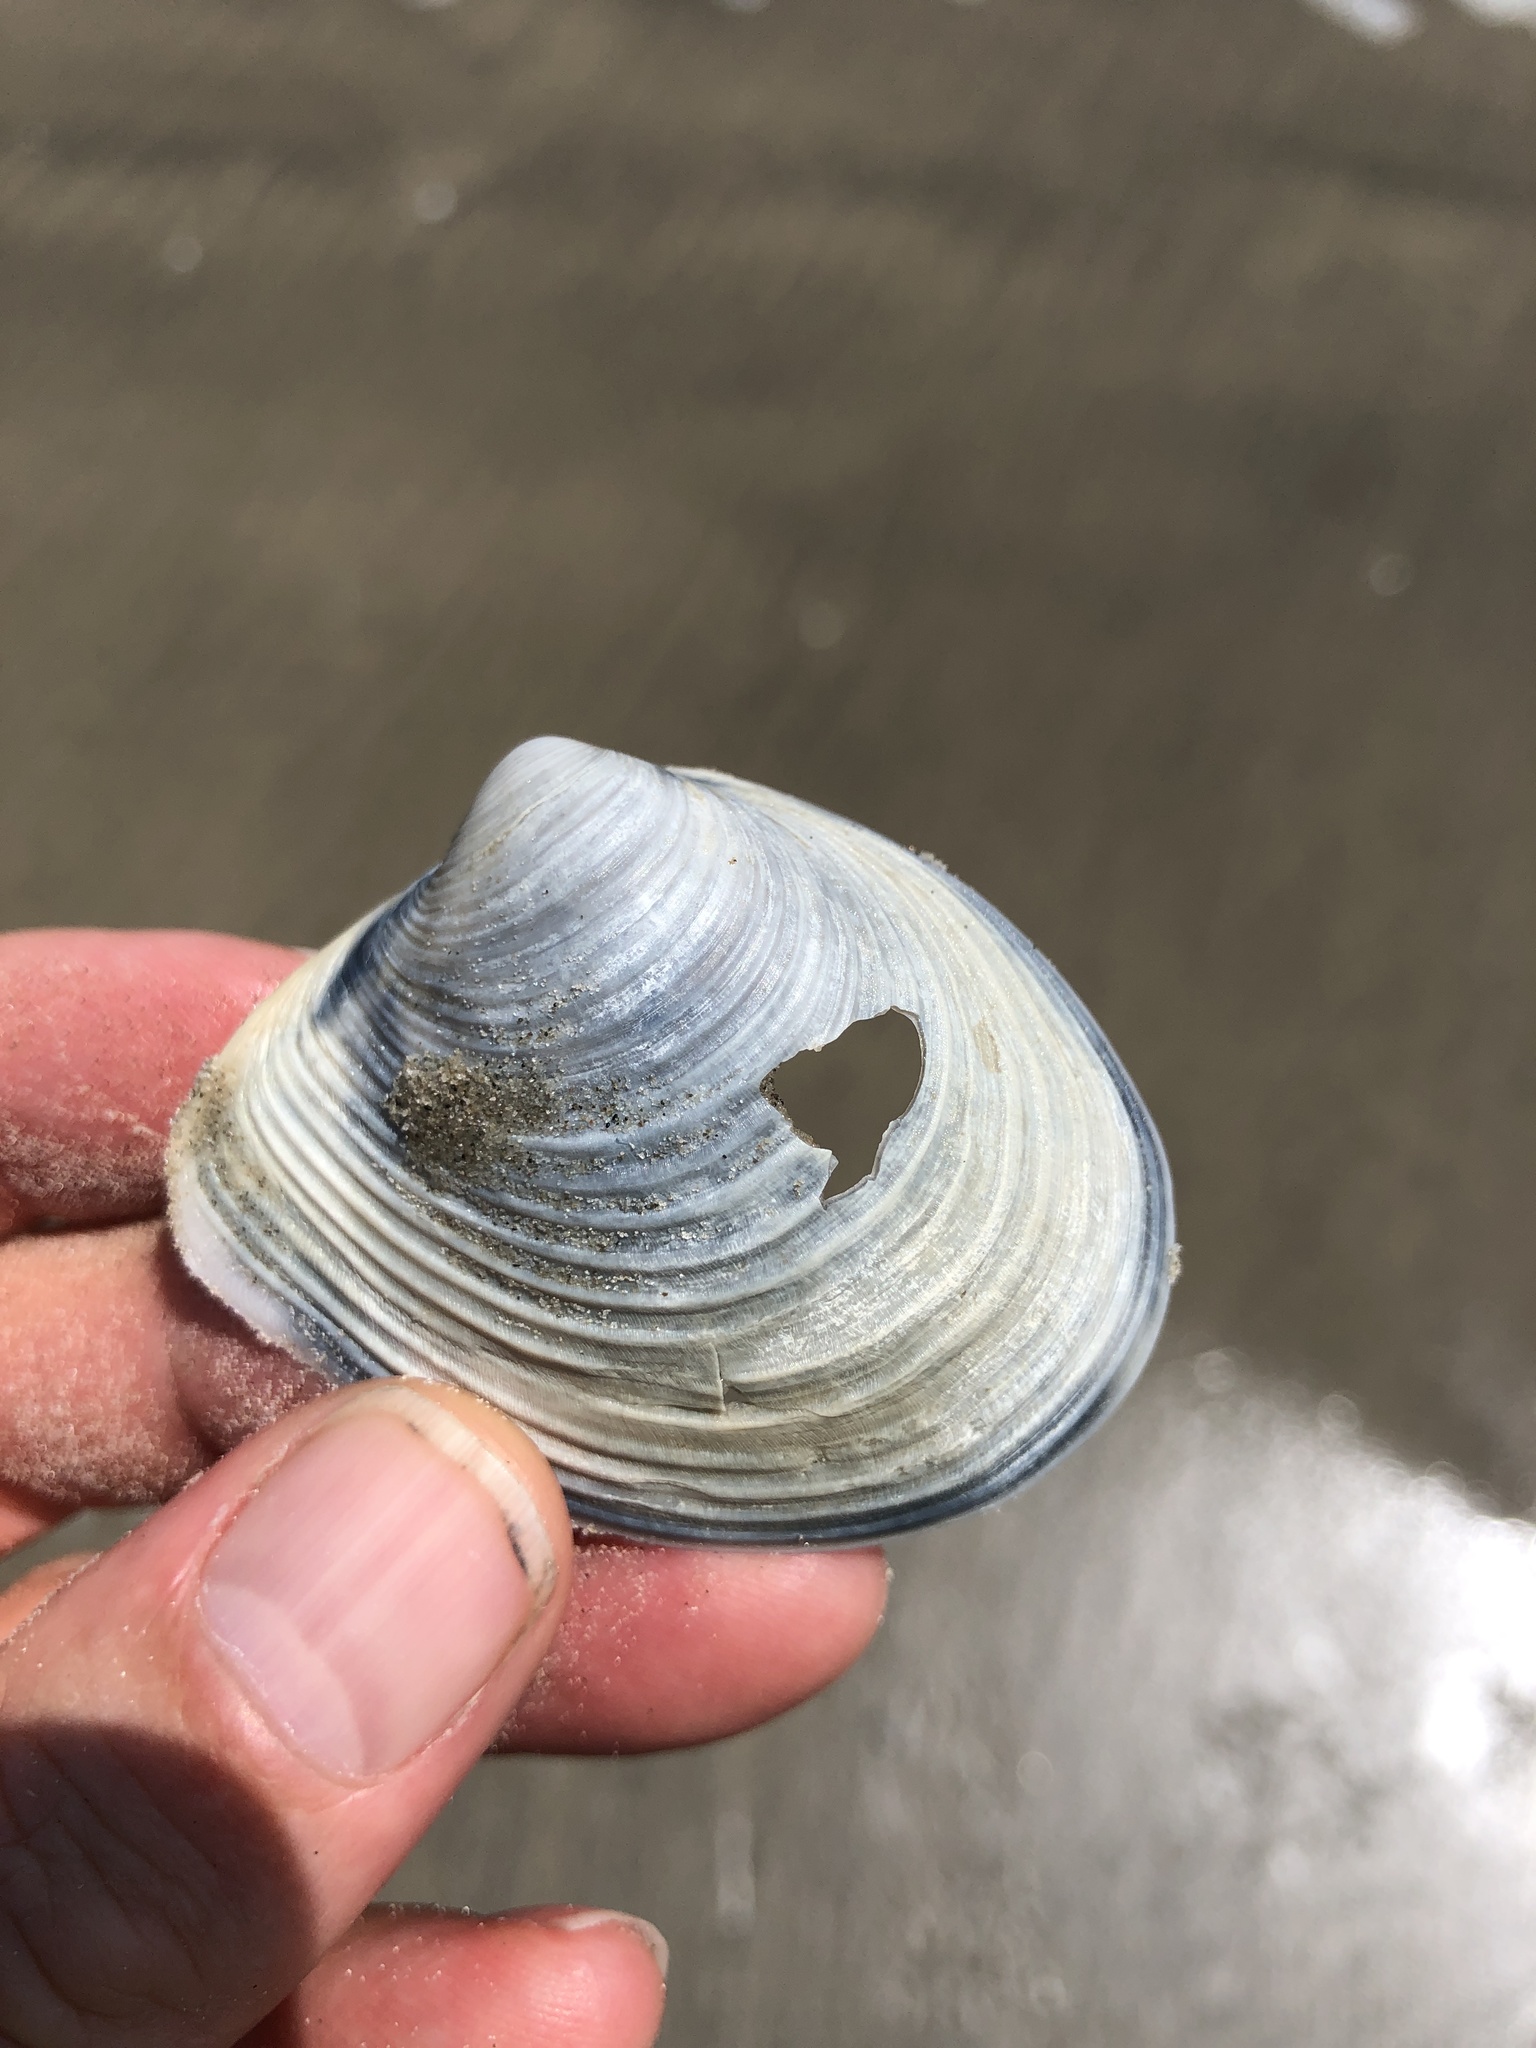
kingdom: Animalia
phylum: Mollusca
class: Bivalvia
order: Venerida
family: Anatinellidae
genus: Raeta
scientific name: Raeta plicatella
